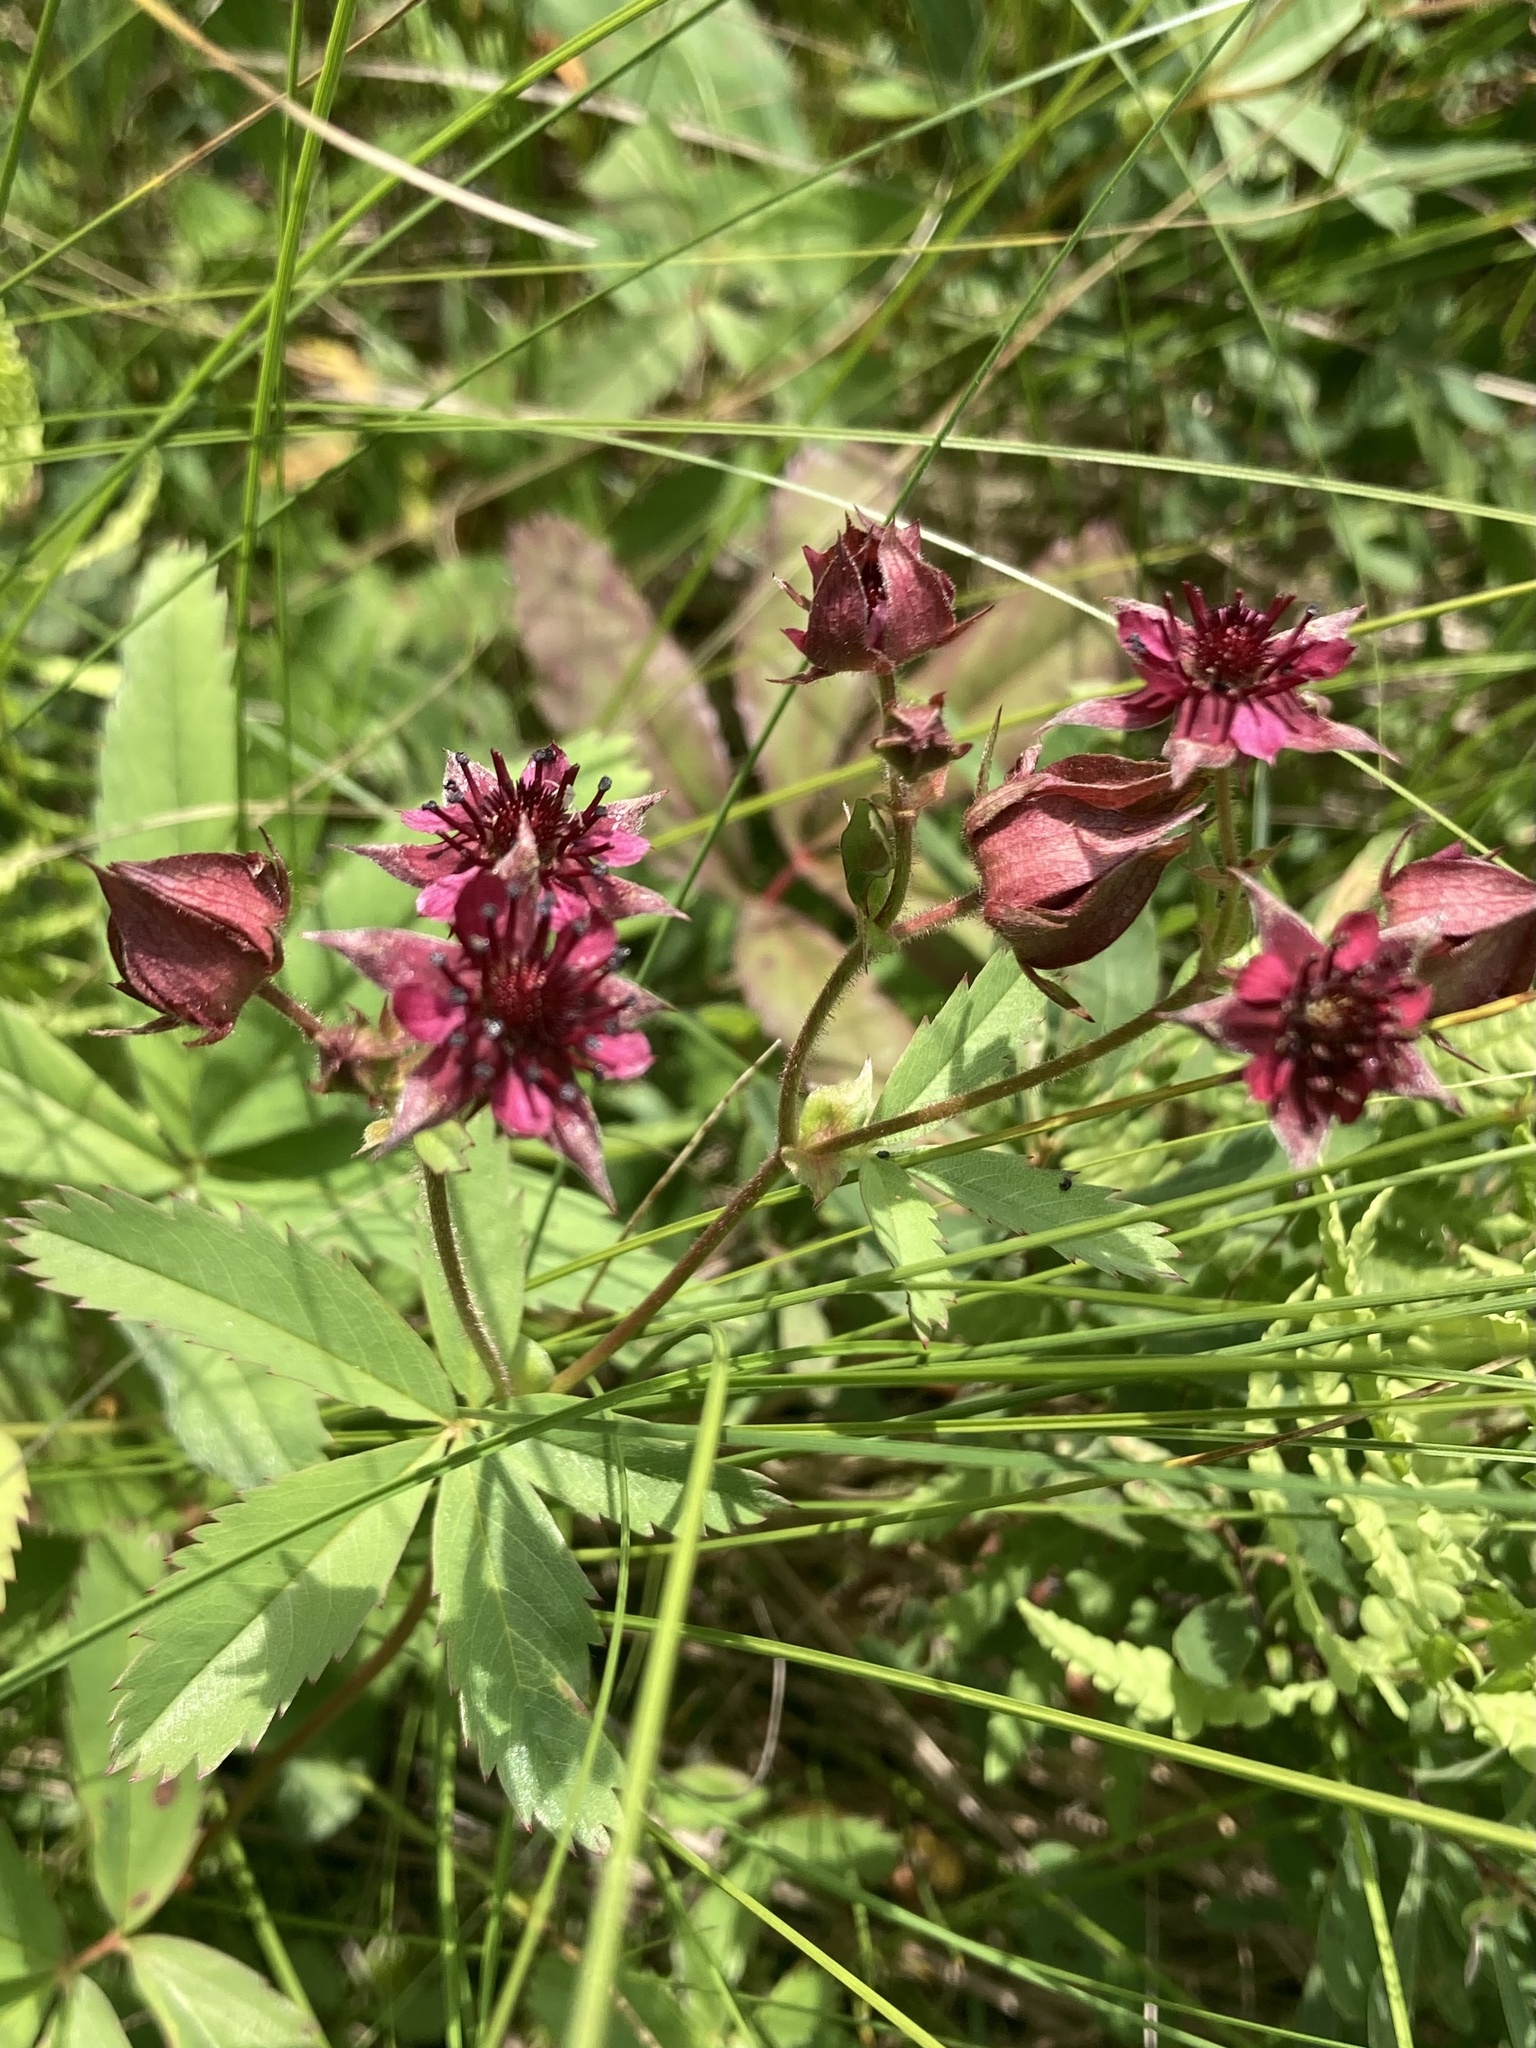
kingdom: Plantae
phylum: Tracheophyta
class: Magnoliopsida
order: Rosales
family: Rosaceae
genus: Comarum
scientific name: Comarum palustre
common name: Marsh cinquefoil
